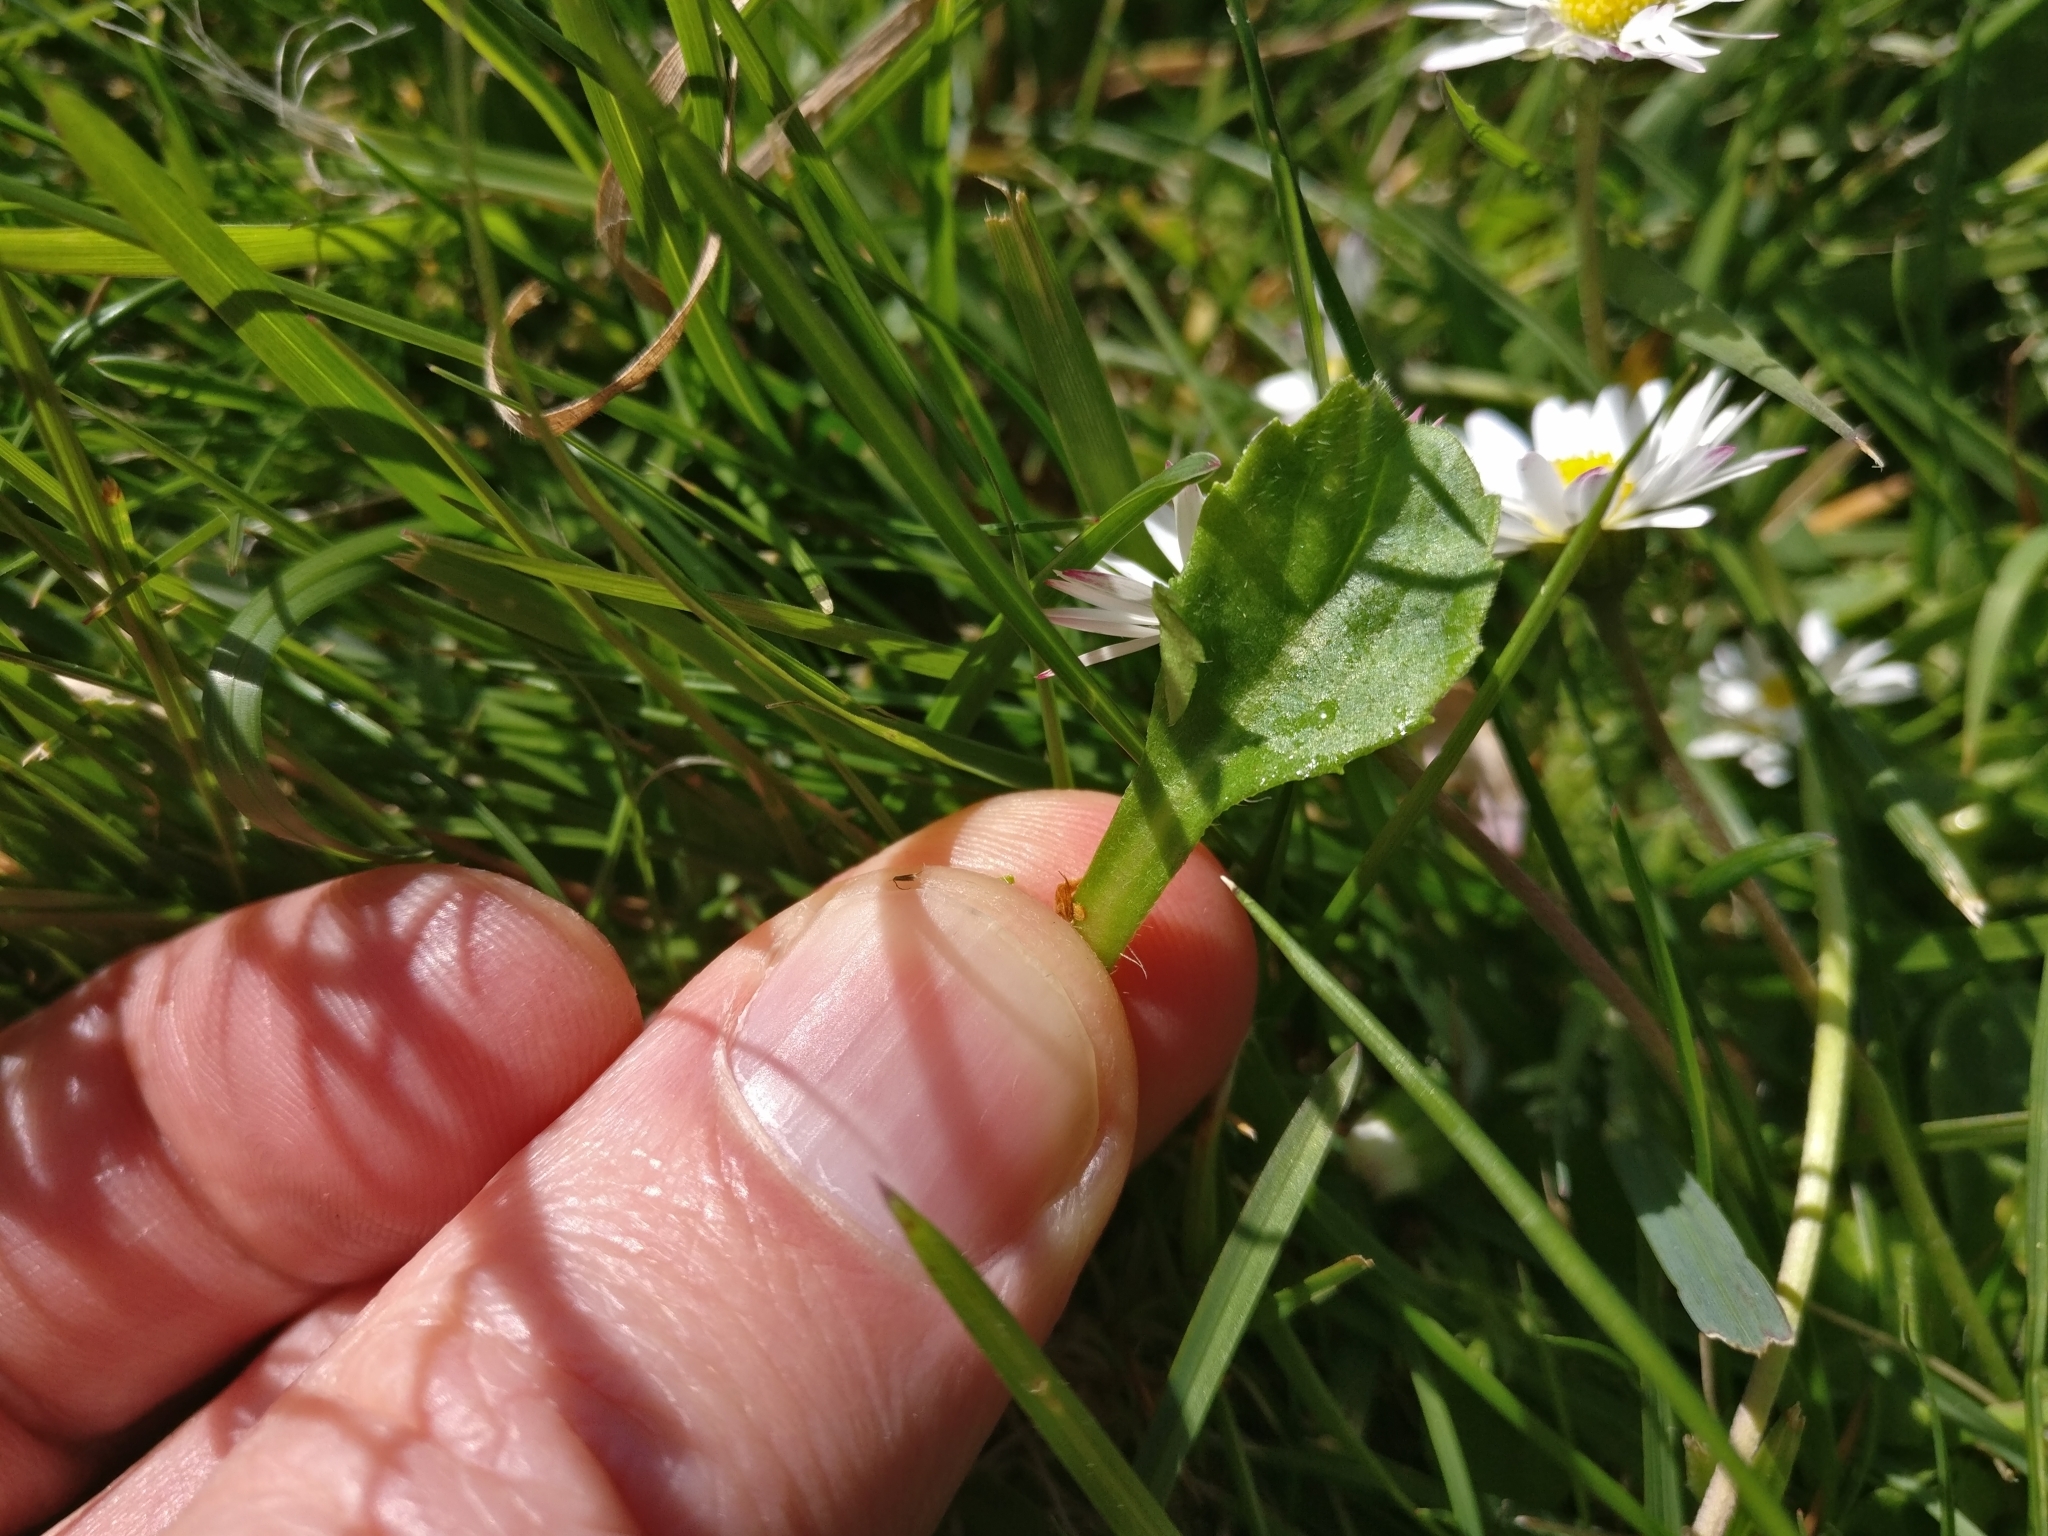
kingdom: Plantae
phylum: Tracheophyta
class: Magnoliopsida
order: Asterales
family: Asteraceae
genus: Bellis
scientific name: Bellis perennis
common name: Lawndaisy
